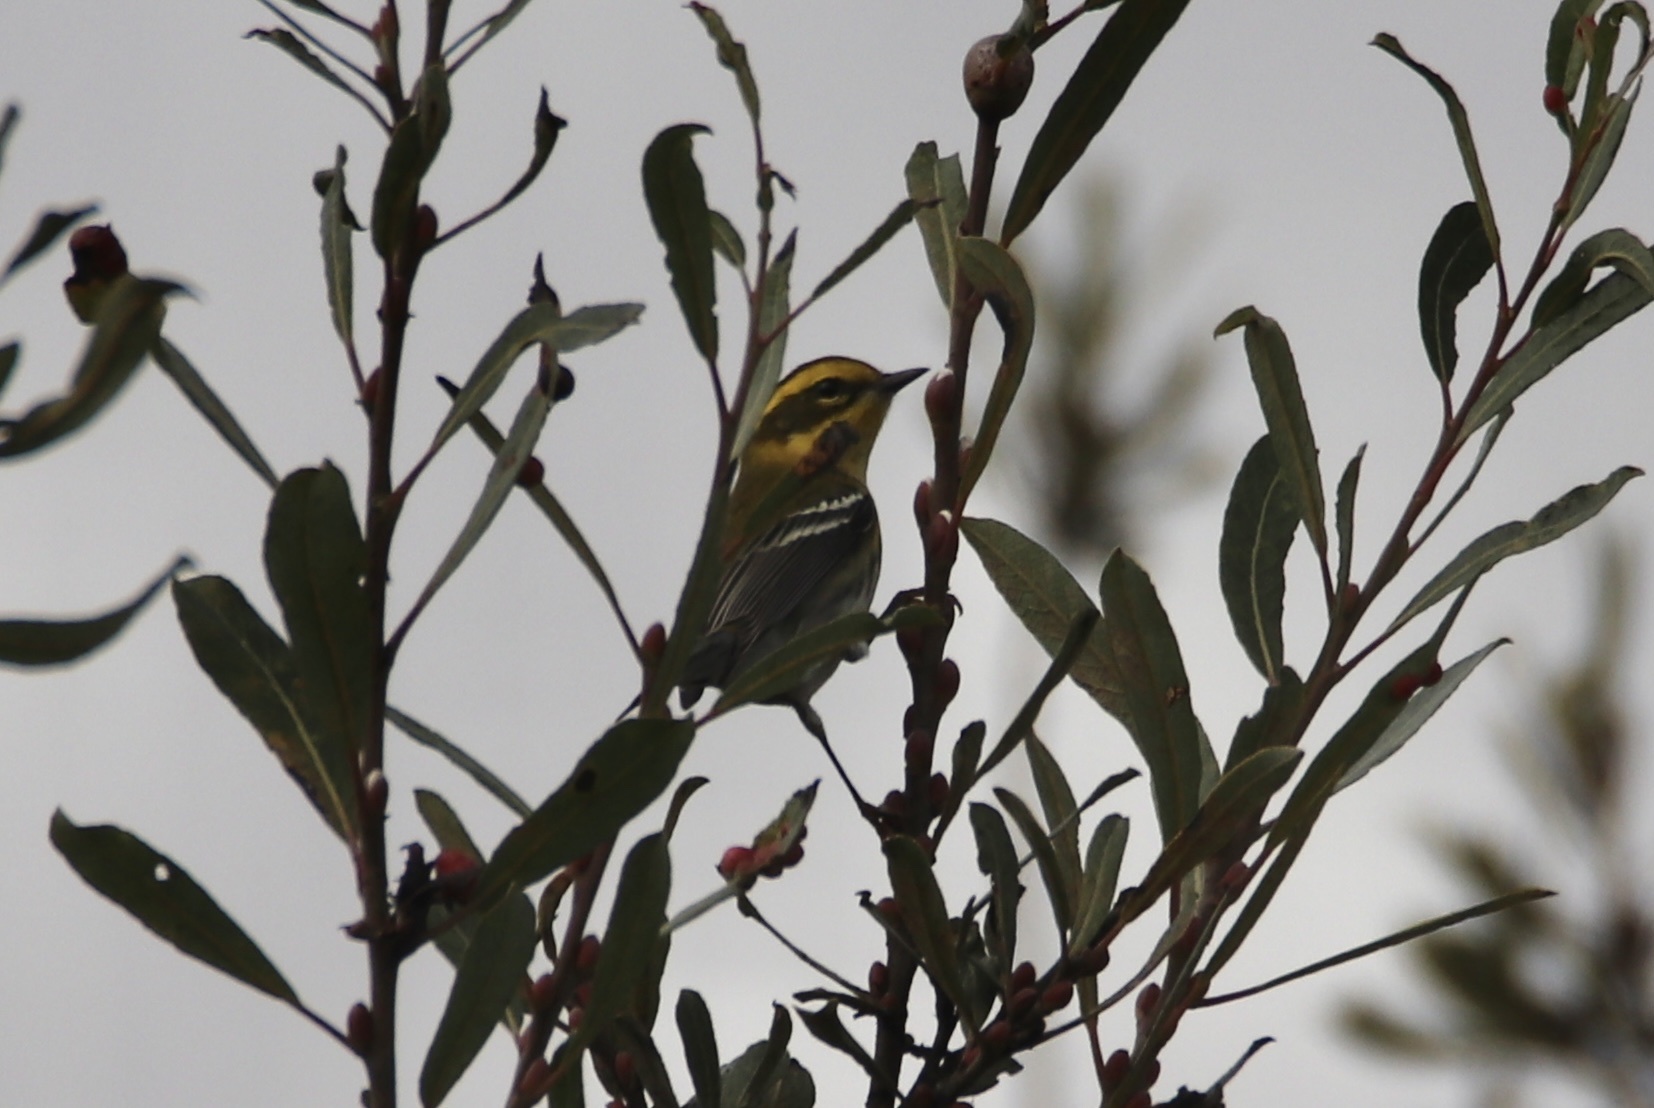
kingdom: Animalia
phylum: Chordata
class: Aves
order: Passeriformes
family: Parulidae
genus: Setophaga
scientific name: Setophaga townsendi
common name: Townsend's warbler
